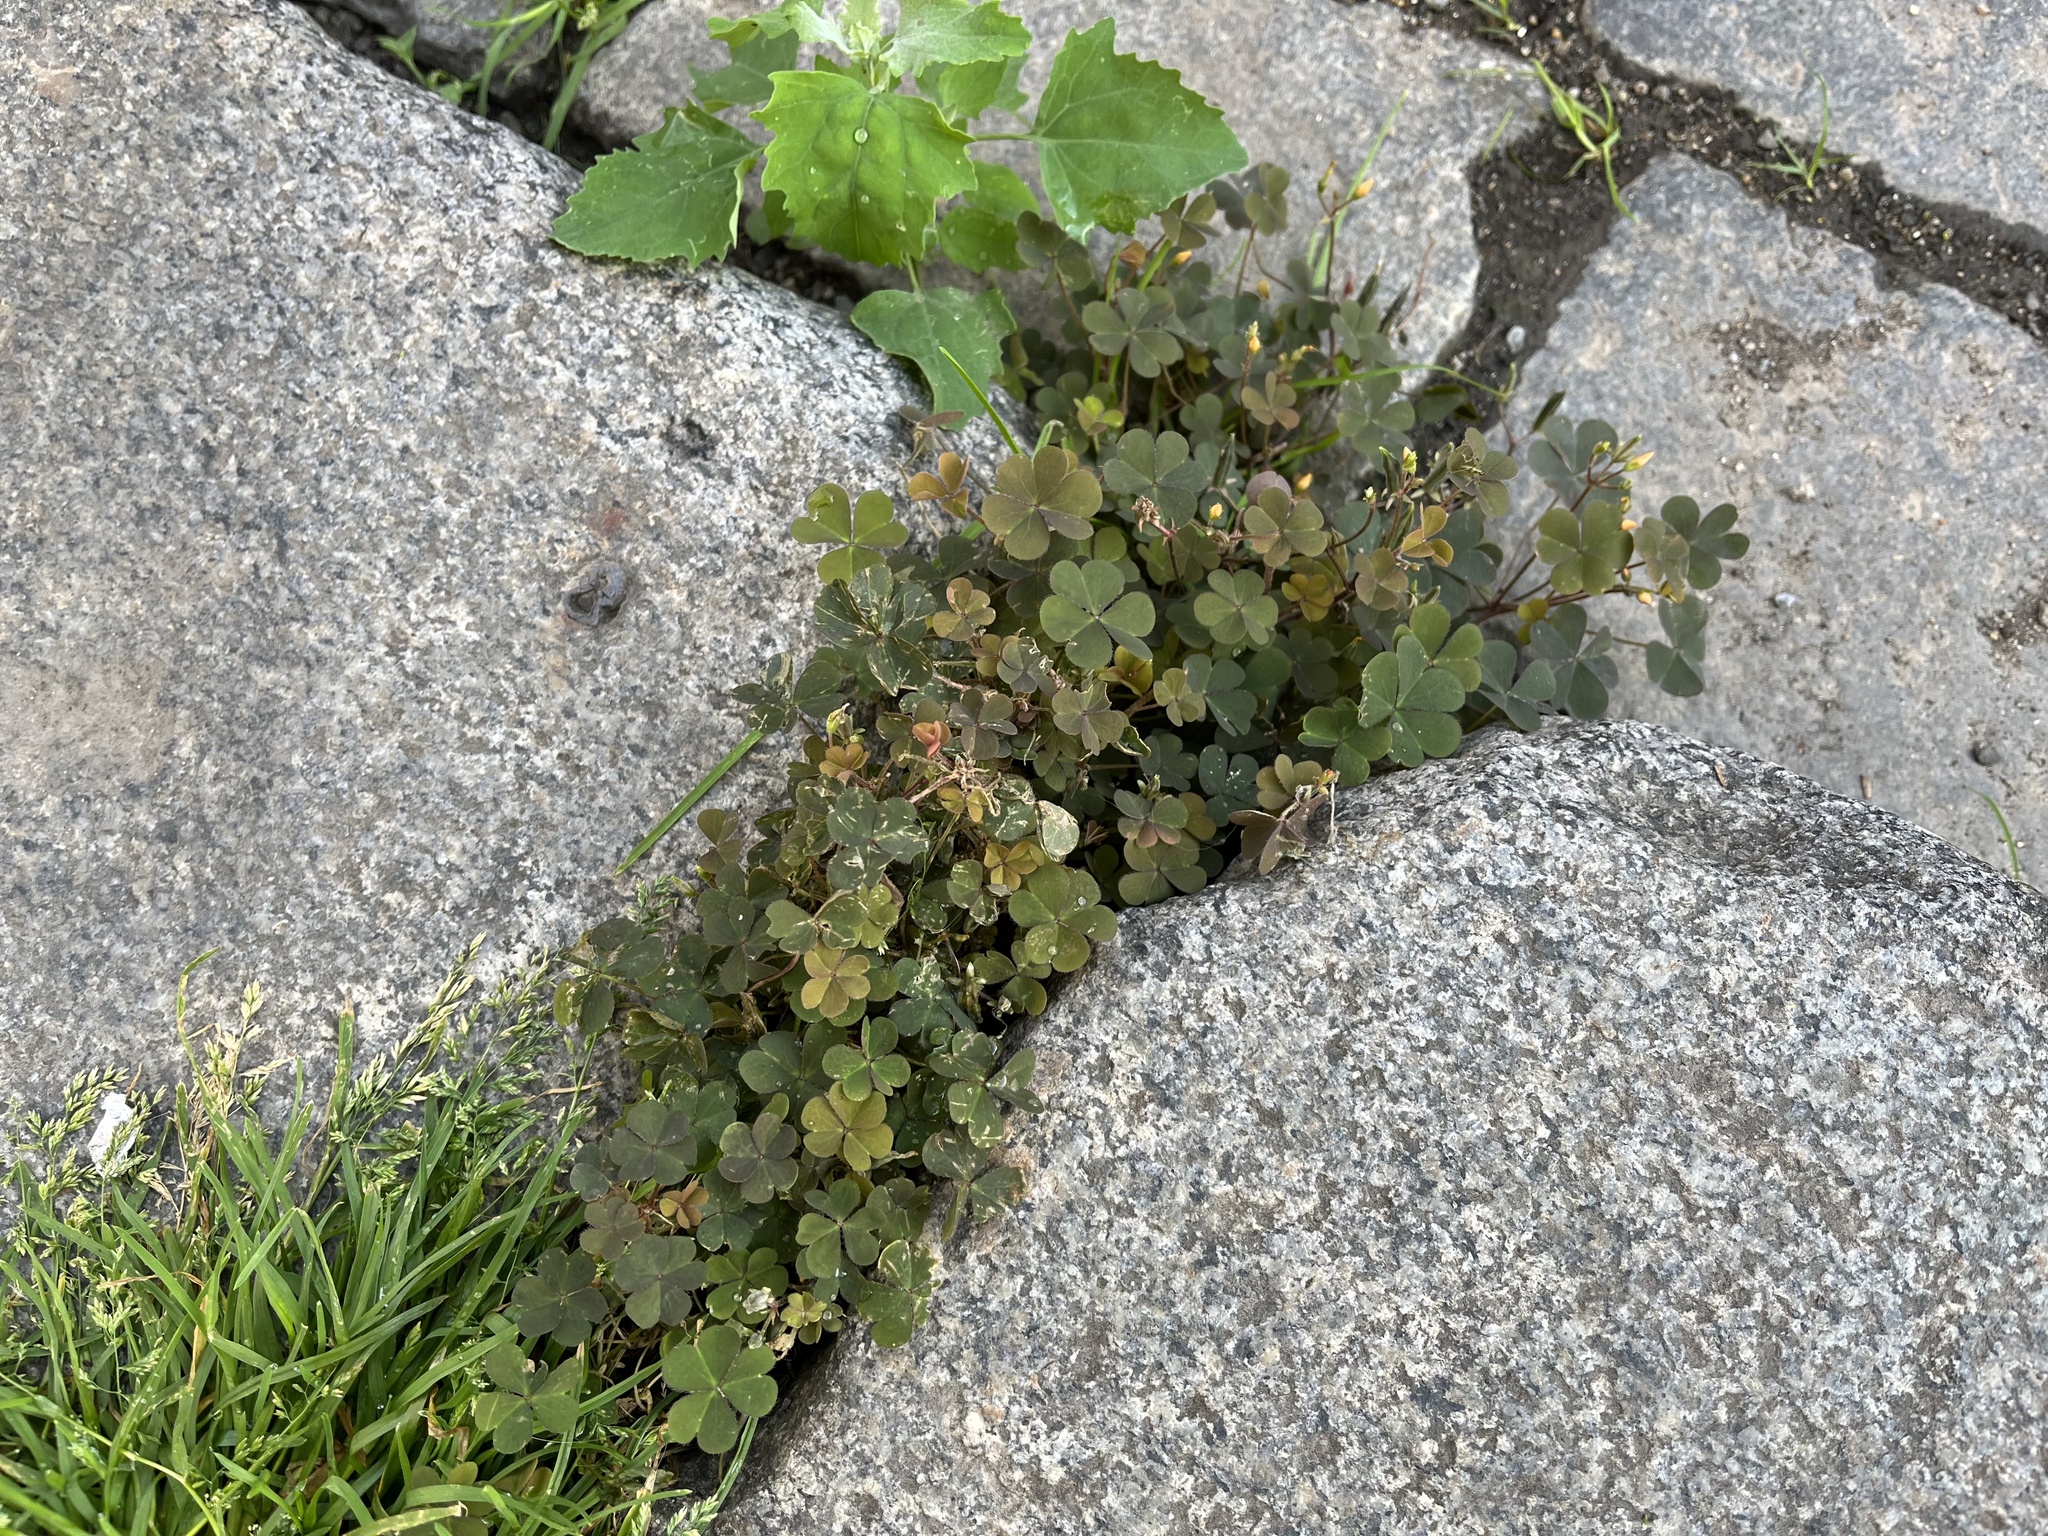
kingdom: Plantae
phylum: Tracheophyta
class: Magnoliopsida
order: Oxalidales
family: Oxalidaceae
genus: Oxalis
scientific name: Oxalis corniculata
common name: Procumbent yellow-sorrel
